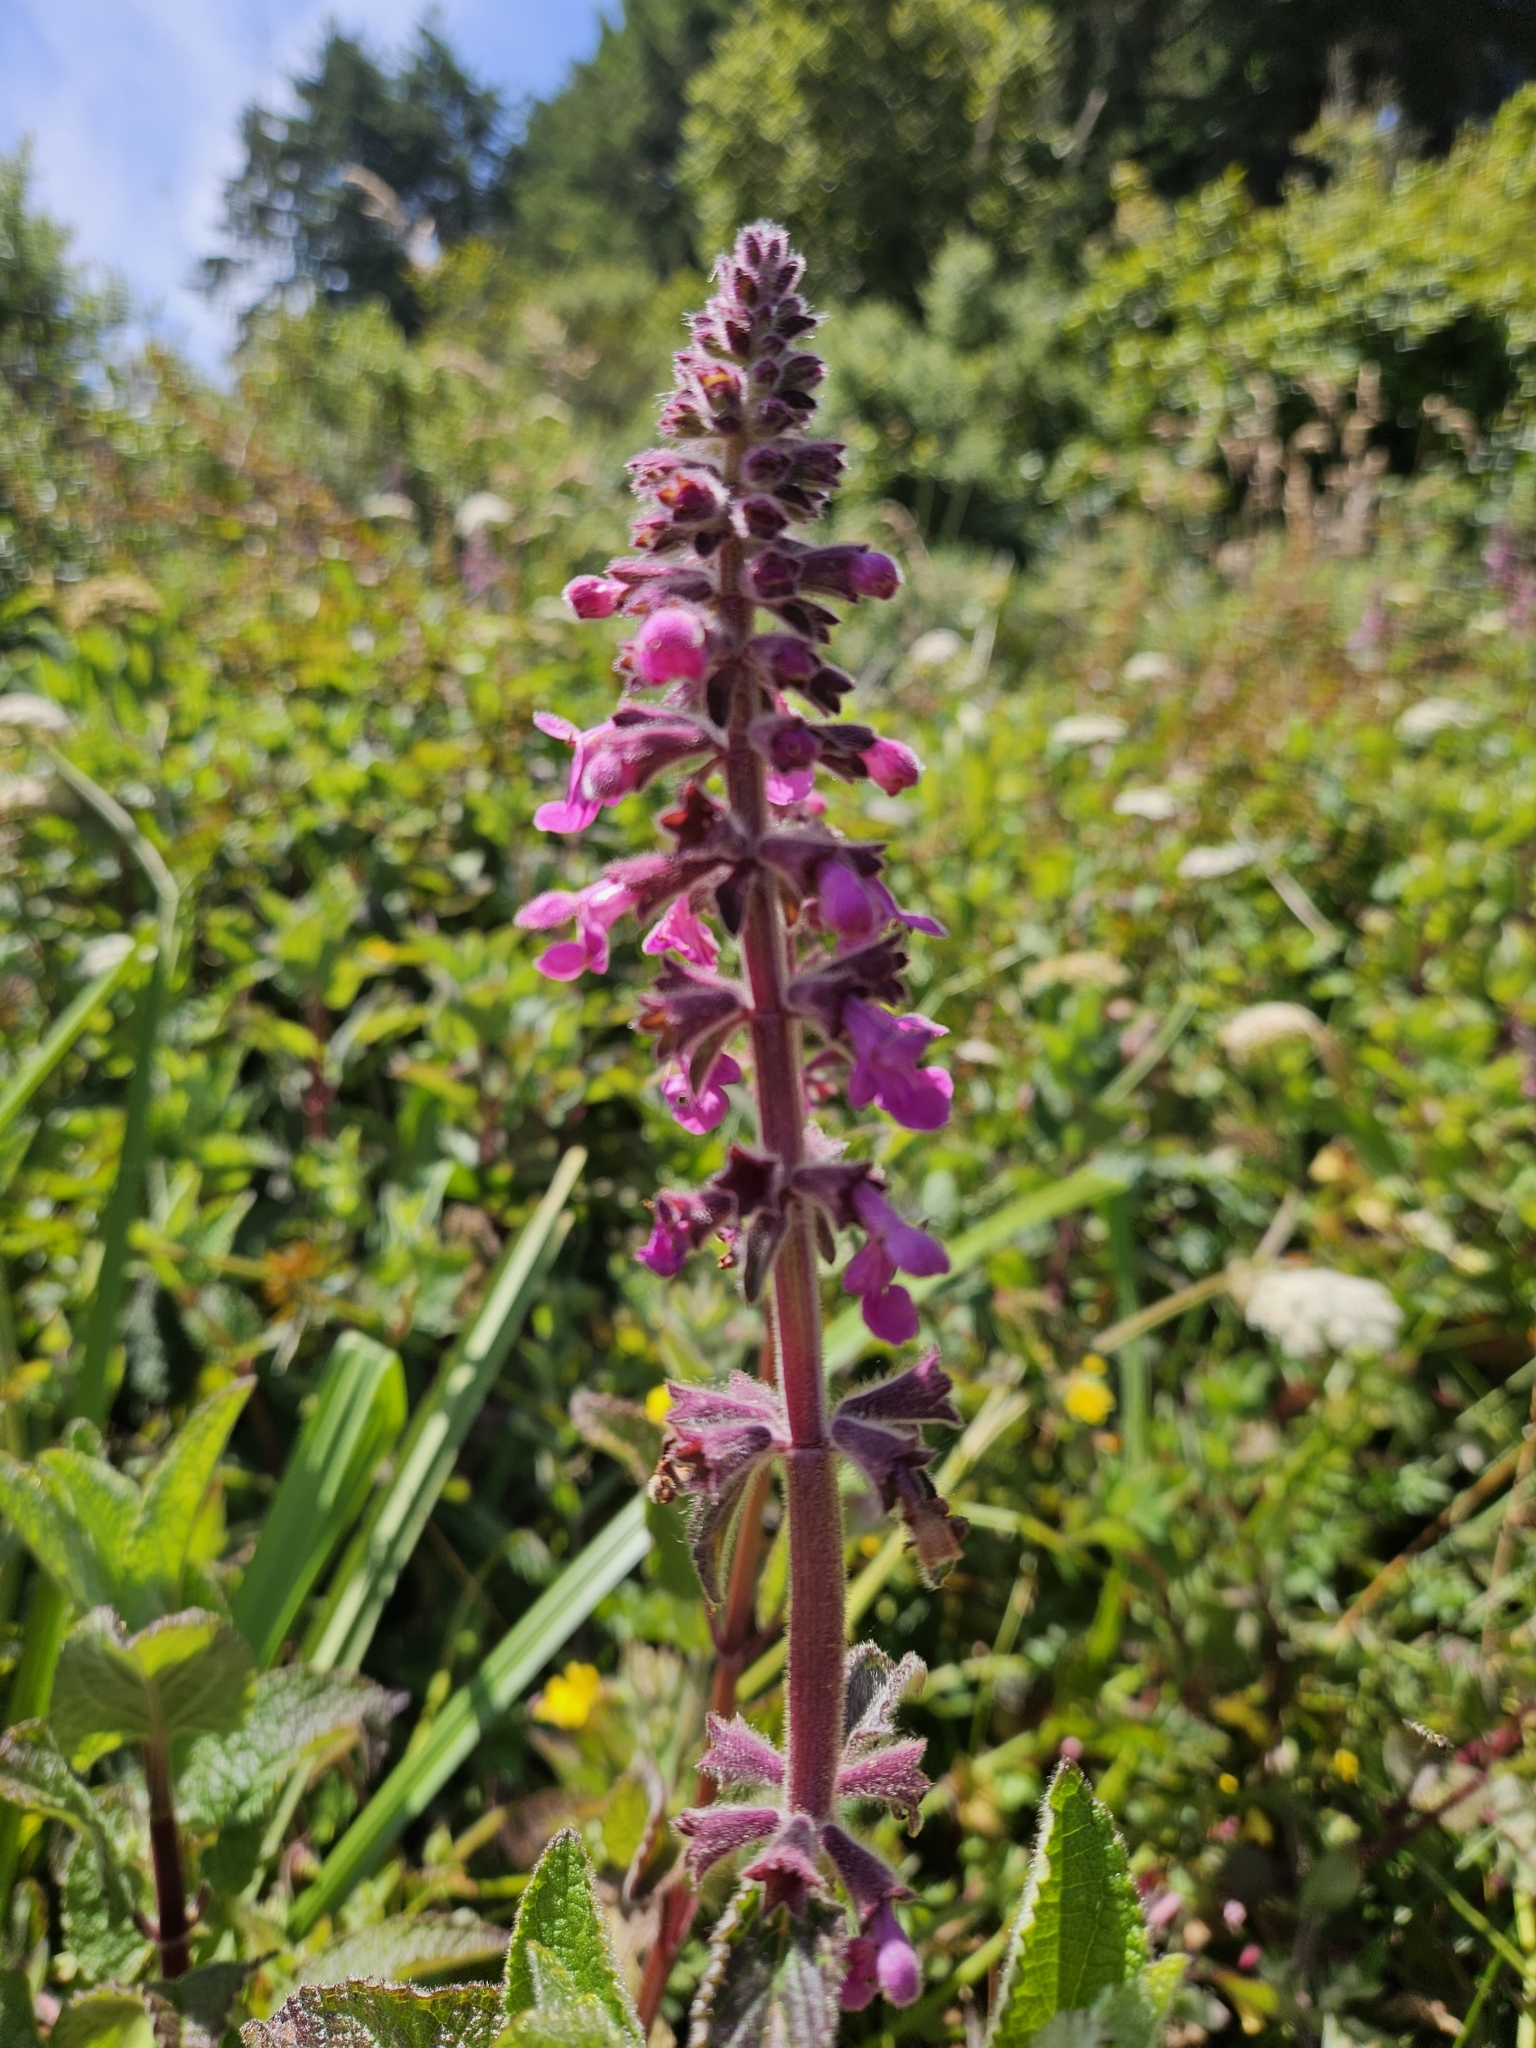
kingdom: Plantae
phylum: Tracheophyta
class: Magnoliopsida
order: Lamiales
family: Lamiaceae
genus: Stachys
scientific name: Stachys chamissonis
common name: Coastal hedge-nettle
